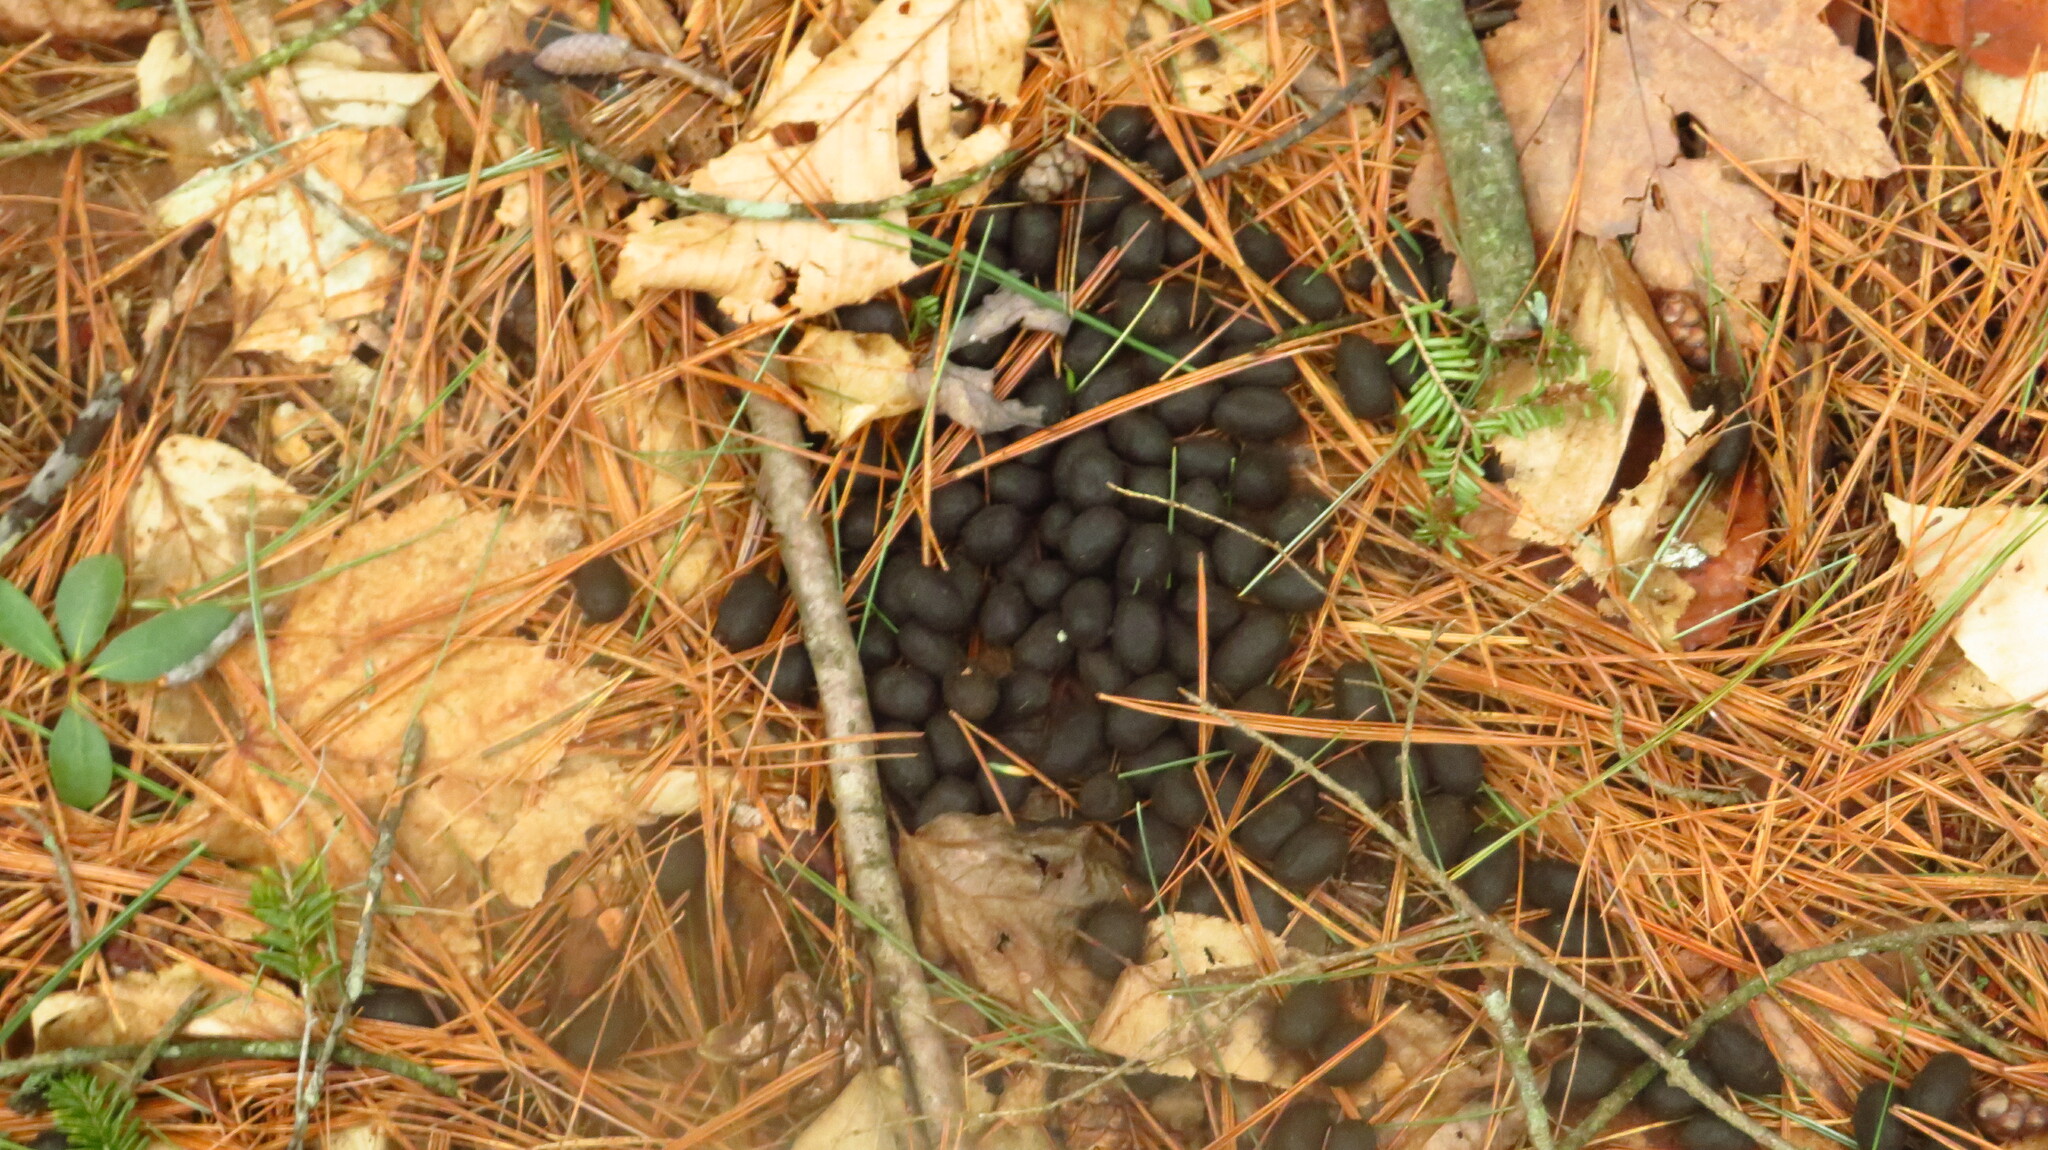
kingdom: Animalia
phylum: Chordata
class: Mammalia
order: Artiodactyla
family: Cervidae
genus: Odocoileus
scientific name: Odocoileus virginianus
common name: White-tailed deer
